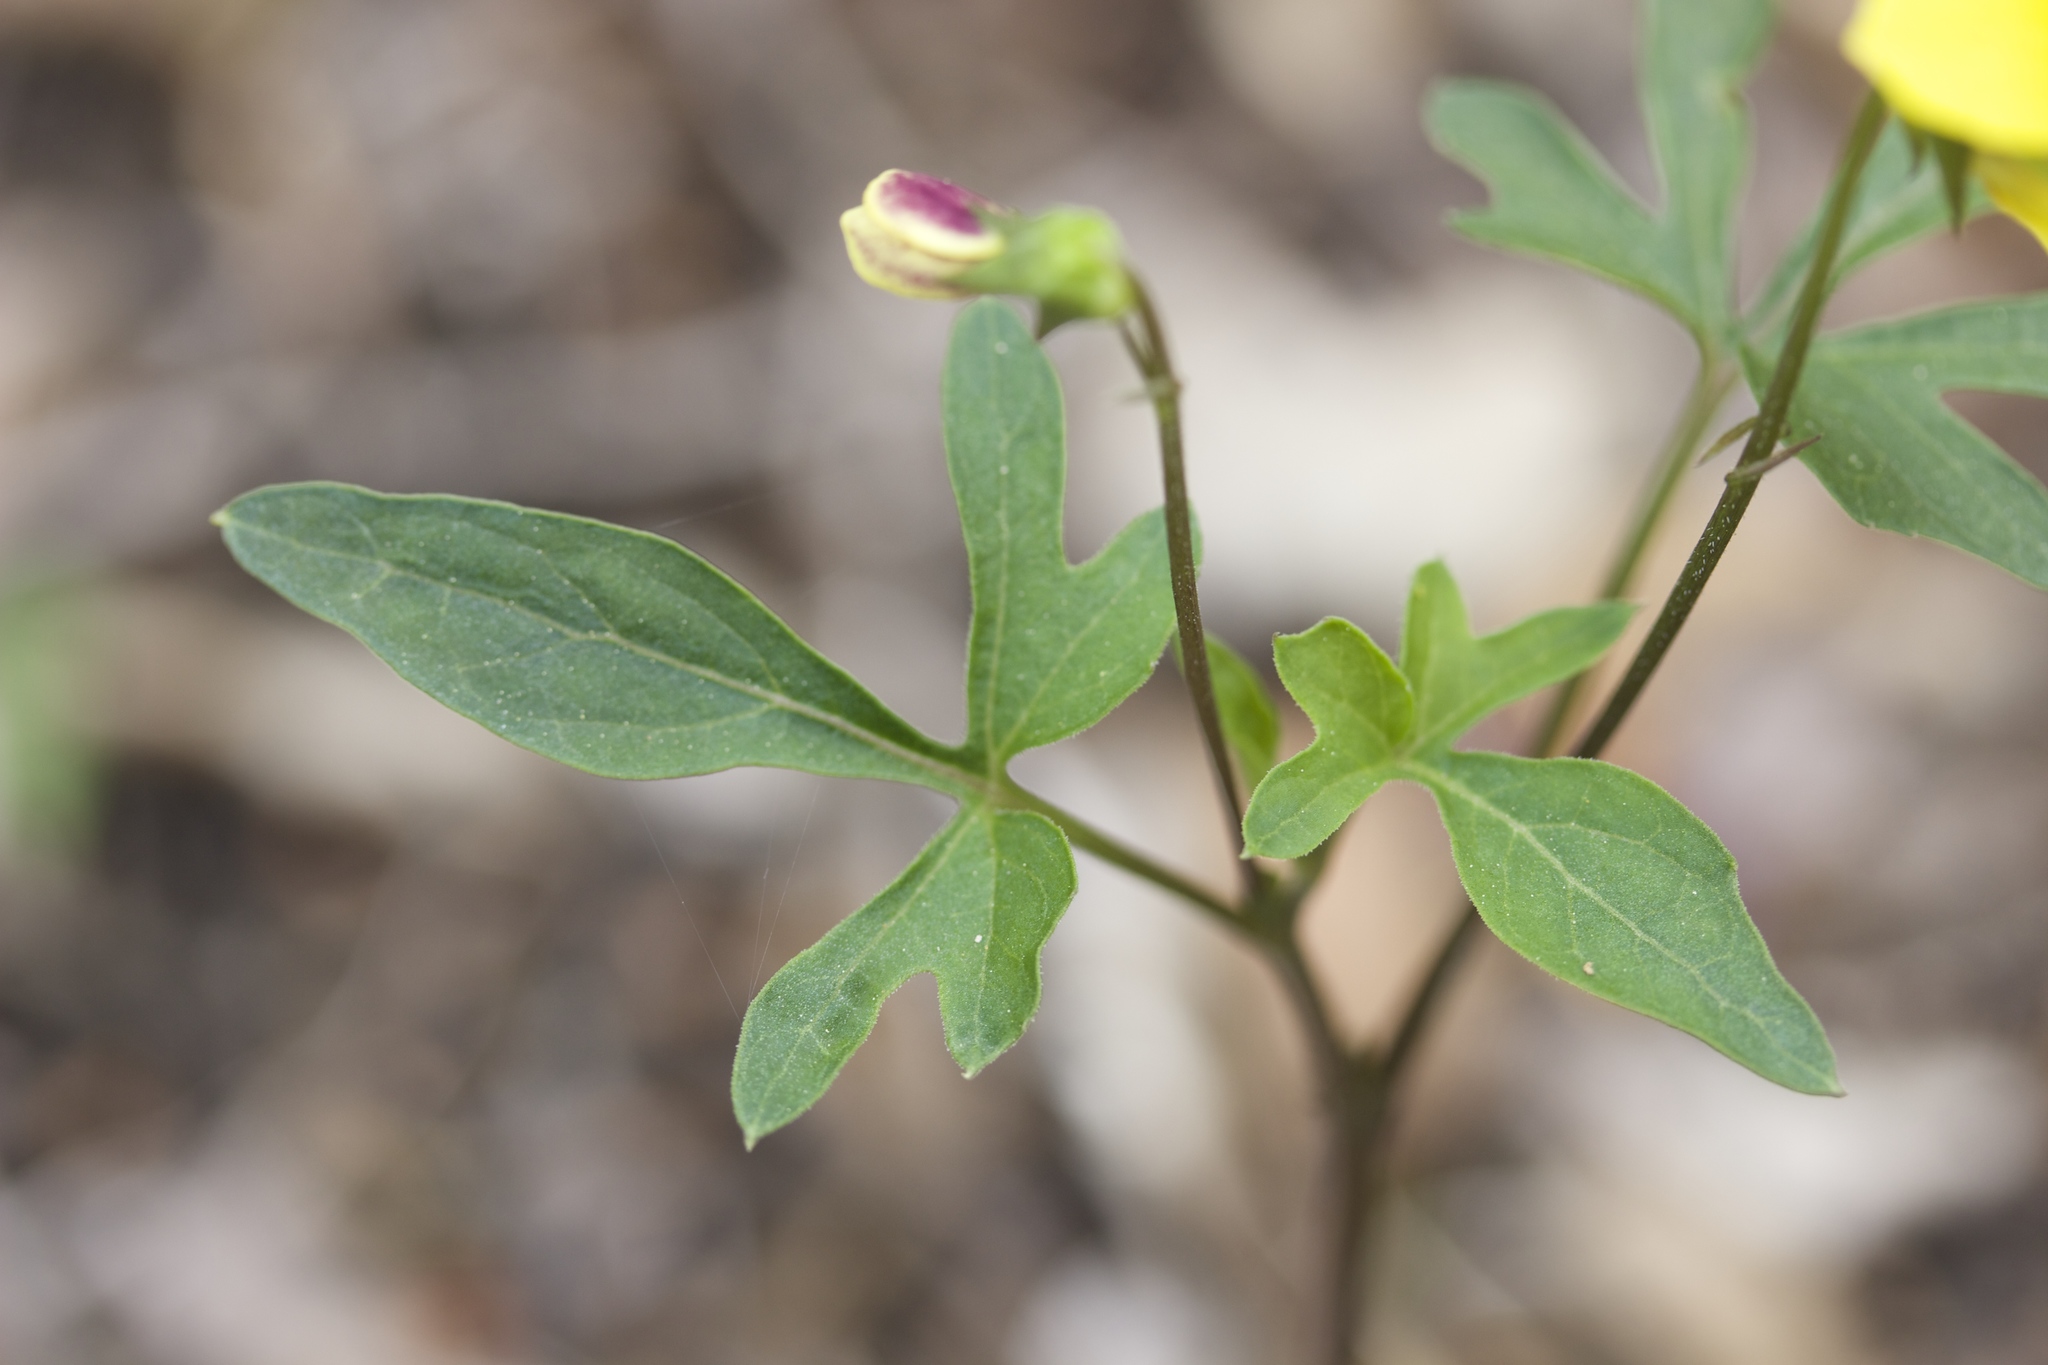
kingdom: Plantae
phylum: Tracheophyta
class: Magnoliopsida
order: Malpighiales
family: Violaceae
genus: Viola
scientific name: Viola lobata
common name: Pine violet
